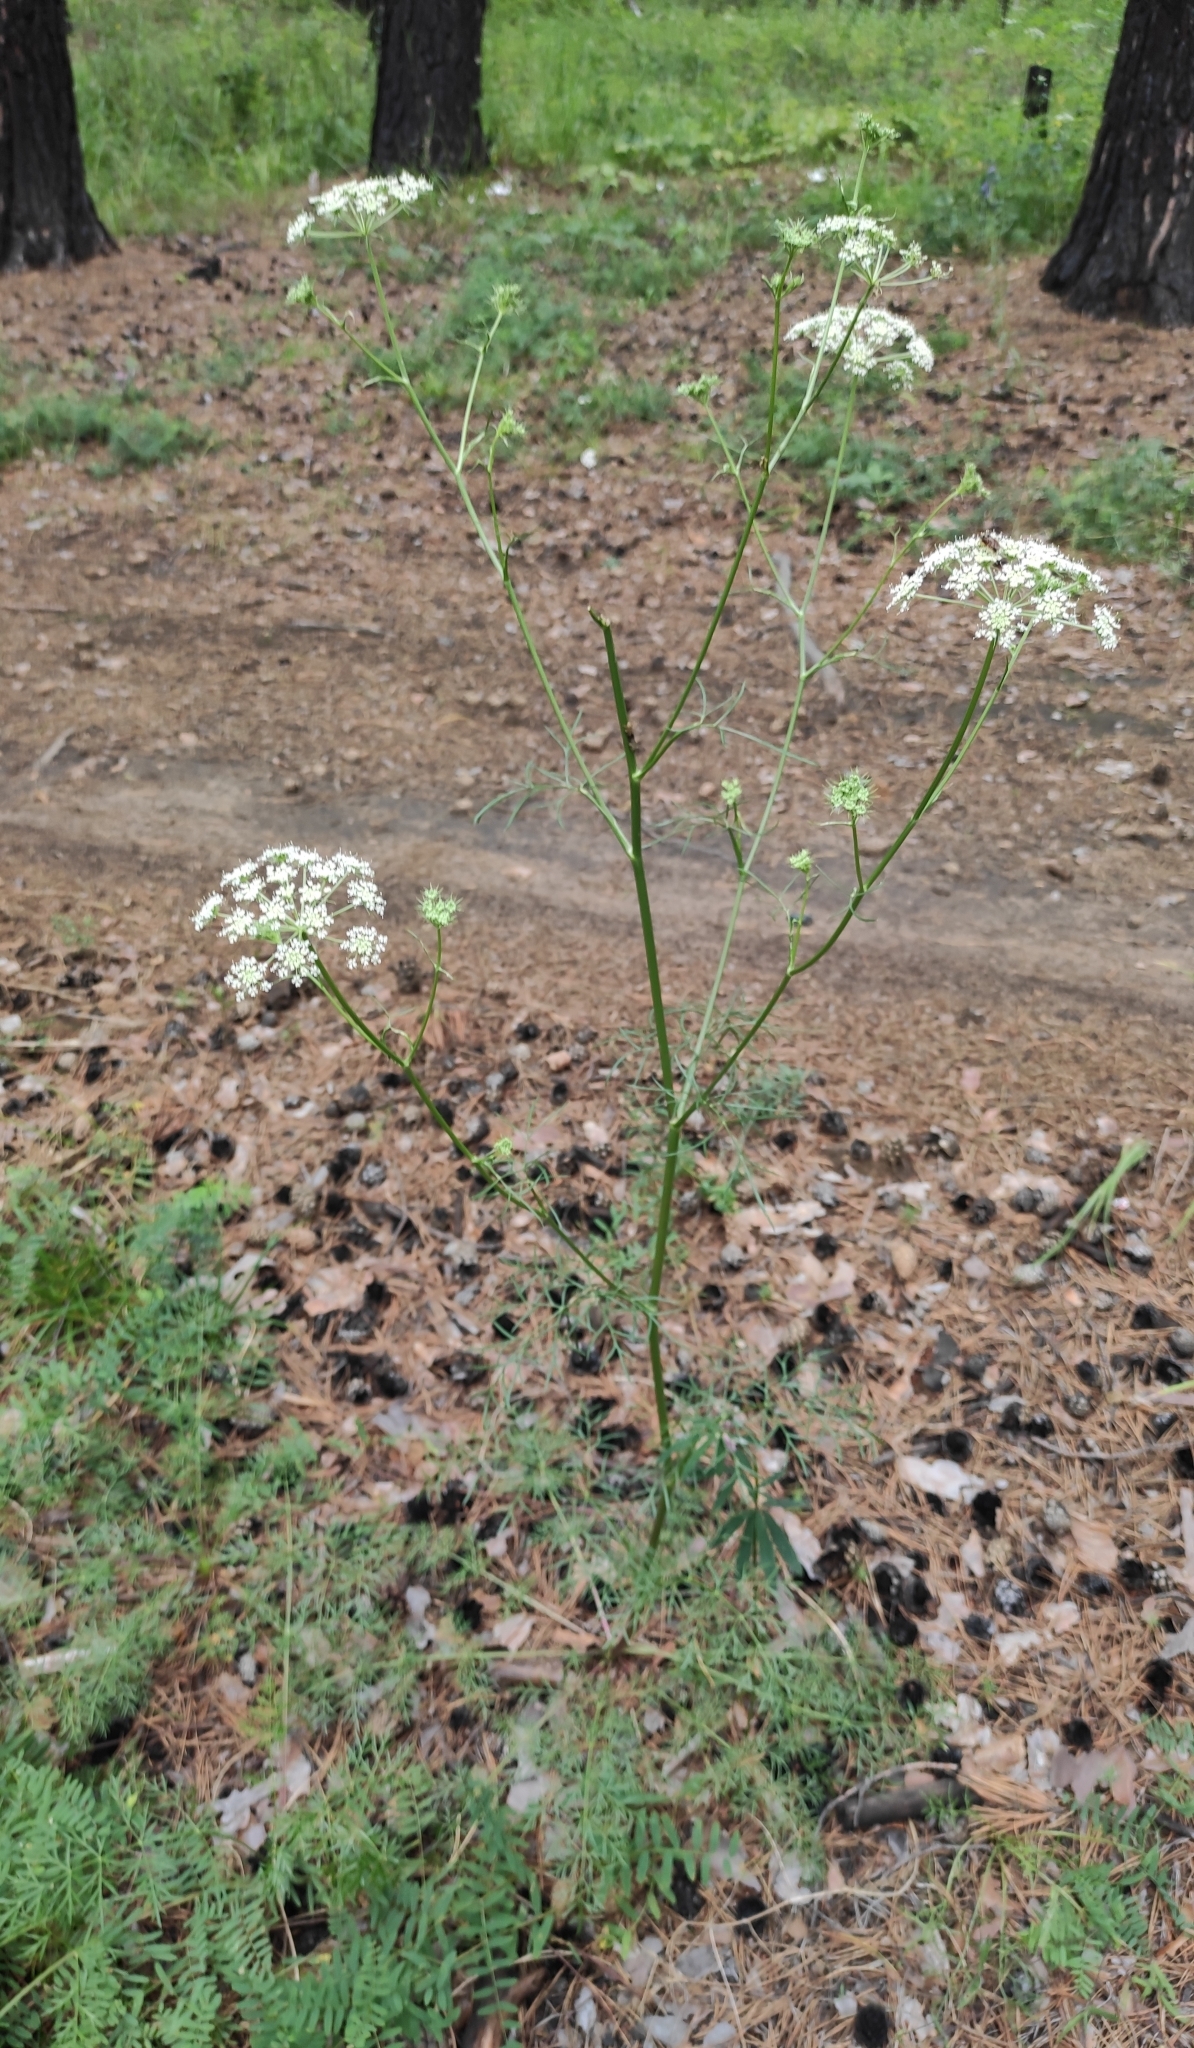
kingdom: Plantae
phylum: Tracheophyta
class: Magnoliopsida
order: Apiales
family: Apiaceae
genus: Kitagawia
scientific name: Kitagawia baicalensis
